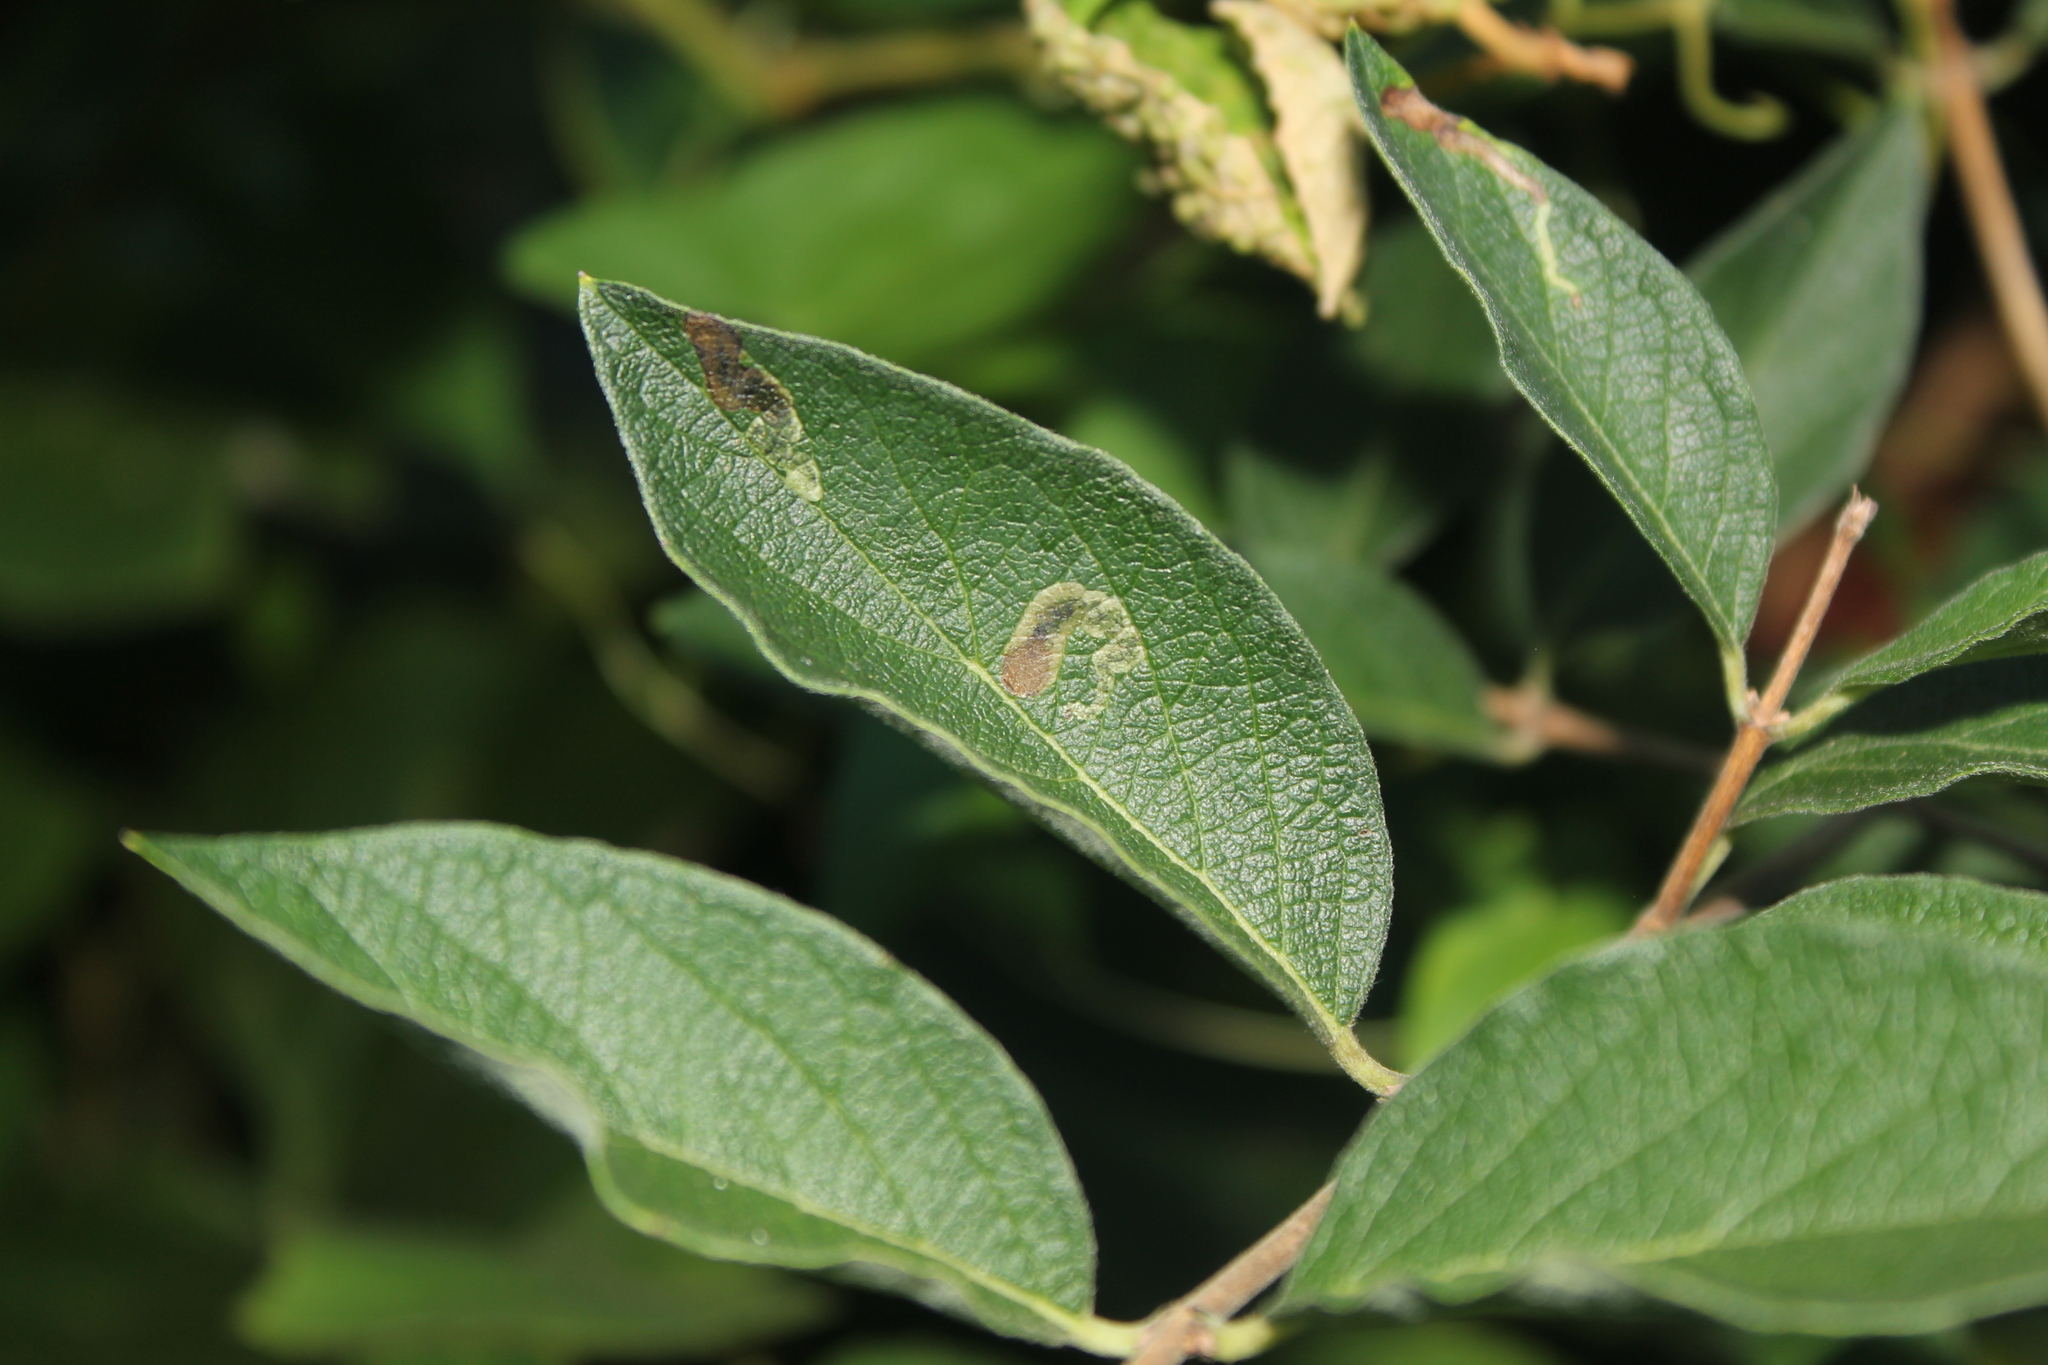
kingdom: Animalia
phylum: Arthropoda
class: Insecta
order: Diptera
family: Agromyzidae
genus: Aulagromyza
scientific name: Aulagromyza
